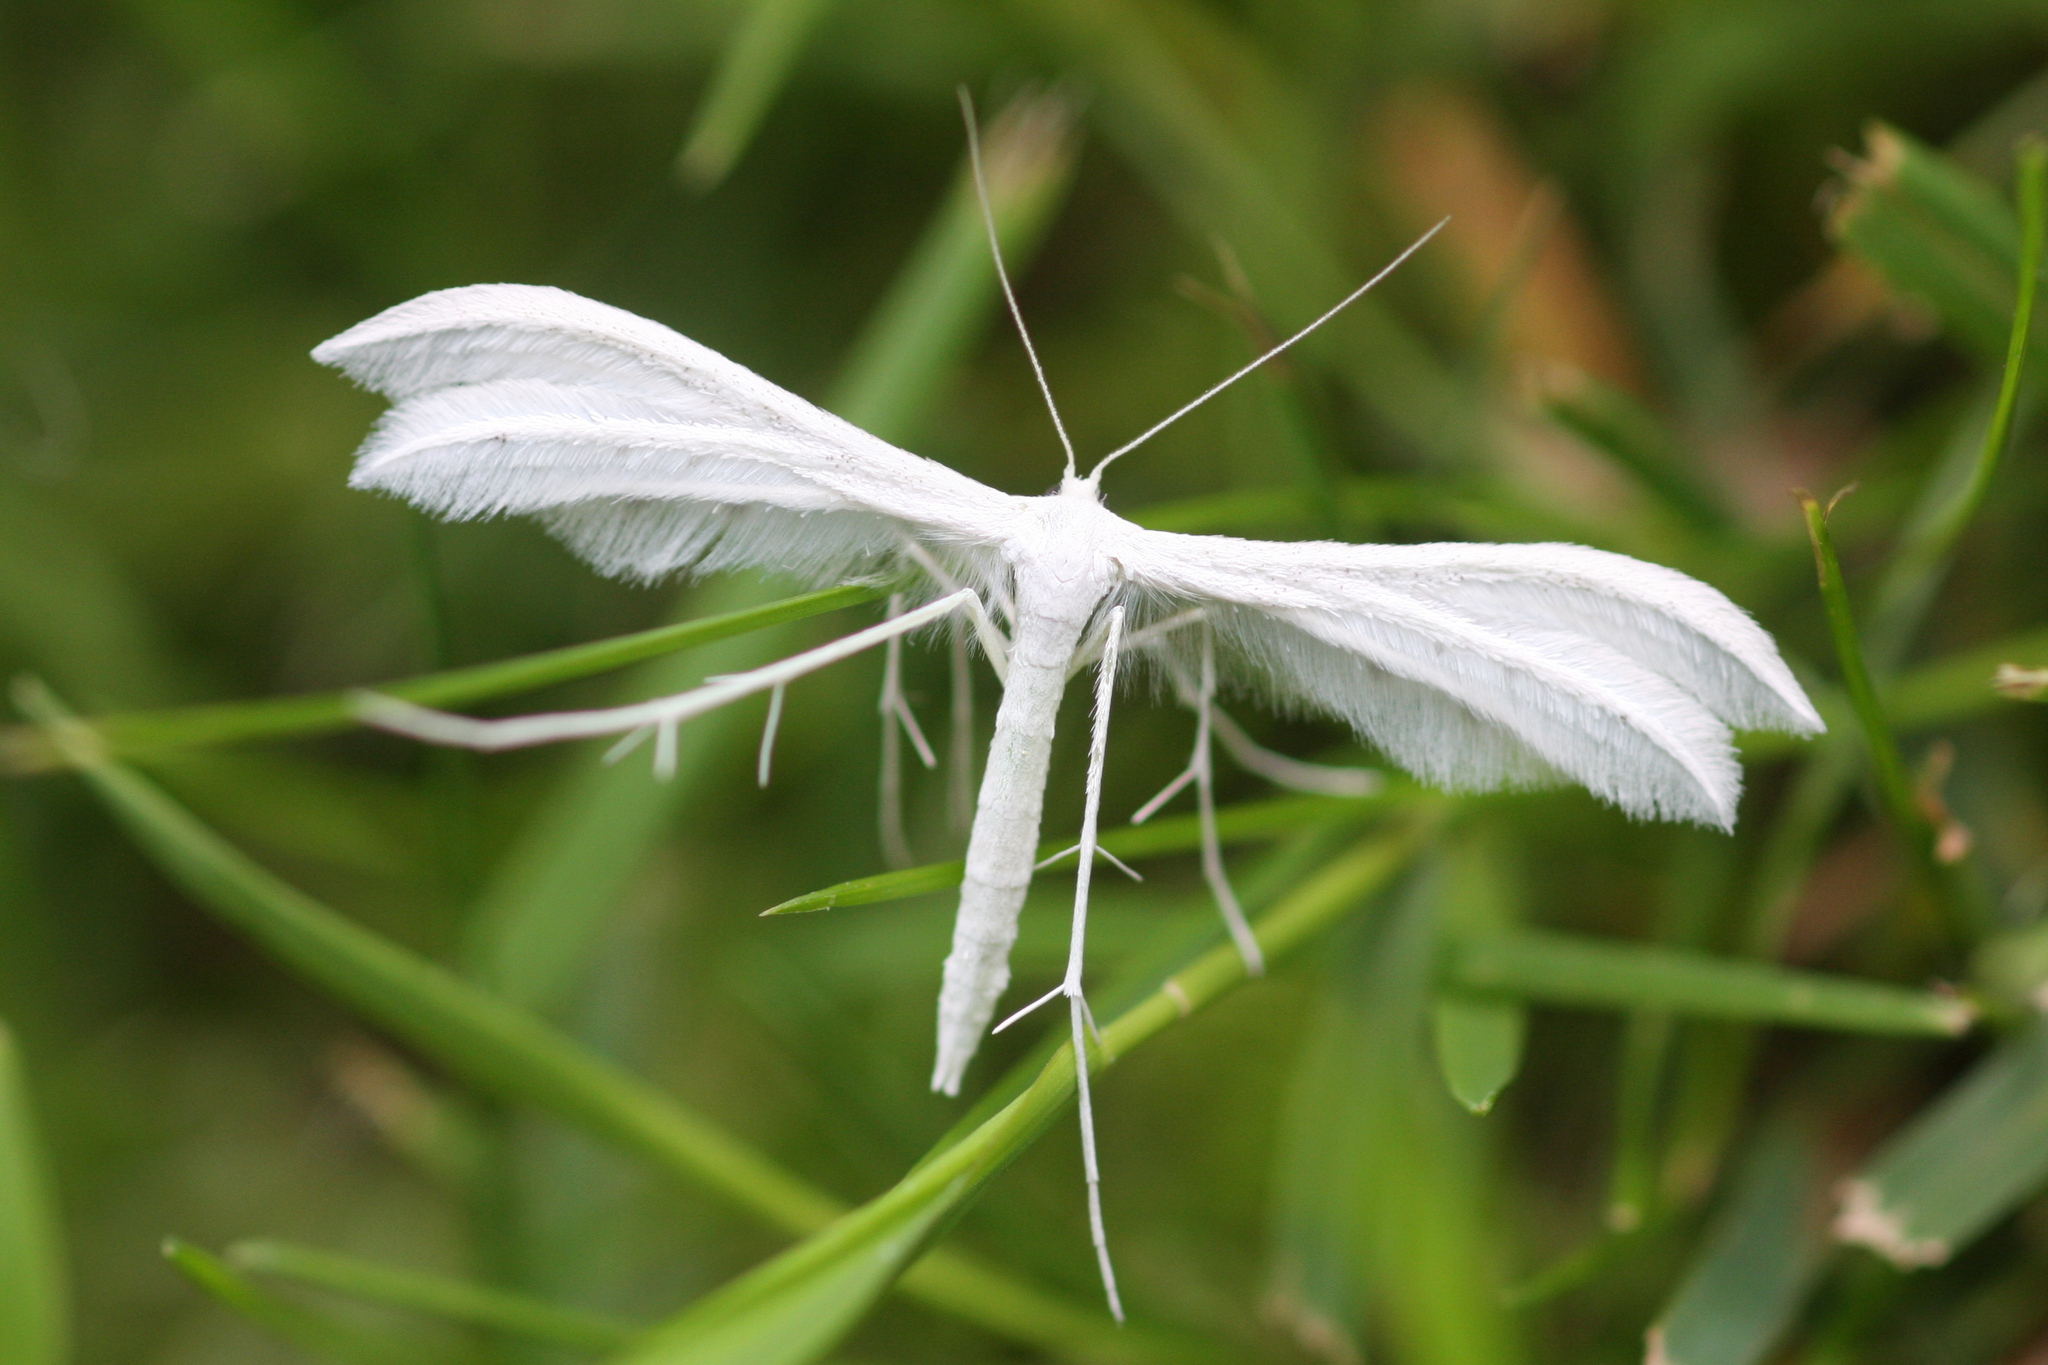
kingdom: Animalia
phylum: Arthropoda
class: Insecta
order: Lepidoptera
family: Pterophoridae
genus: Pterophorus
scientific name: Pterophorus pentadactyla
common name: White plume moth
